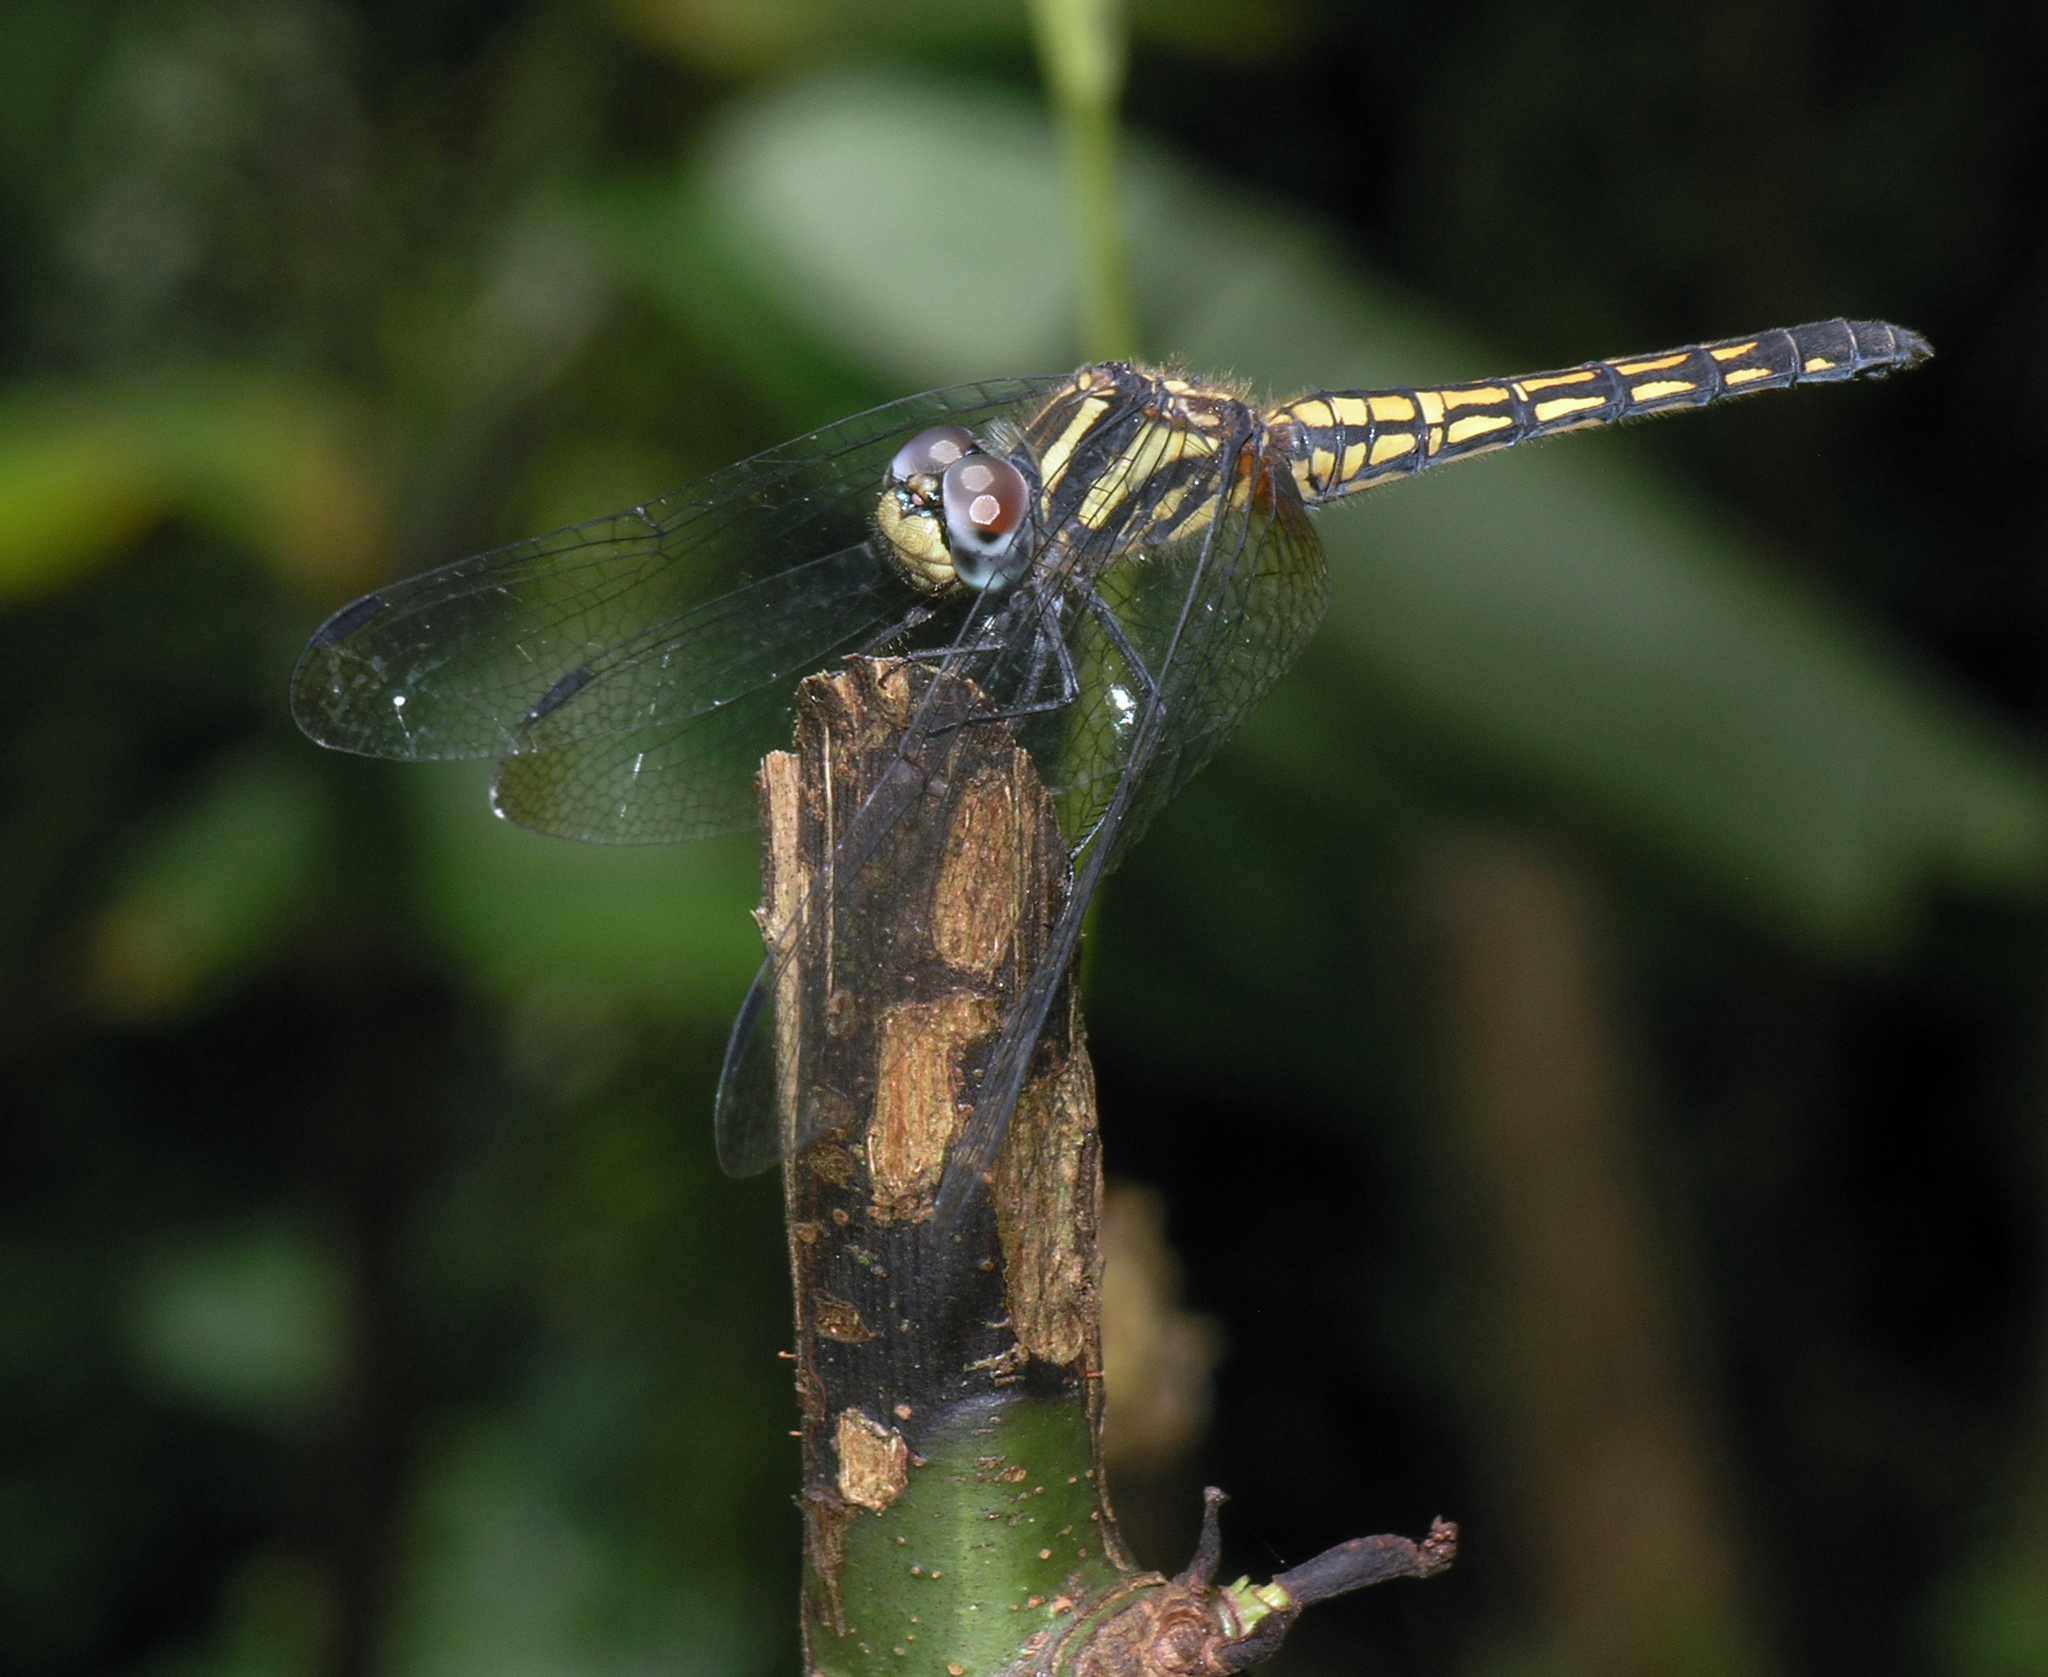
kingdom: Animalia
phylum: Arthropoda
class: Insecta
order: Odonata
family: Libellulidae
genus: Trithemis
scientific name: Trithemis lilacina
